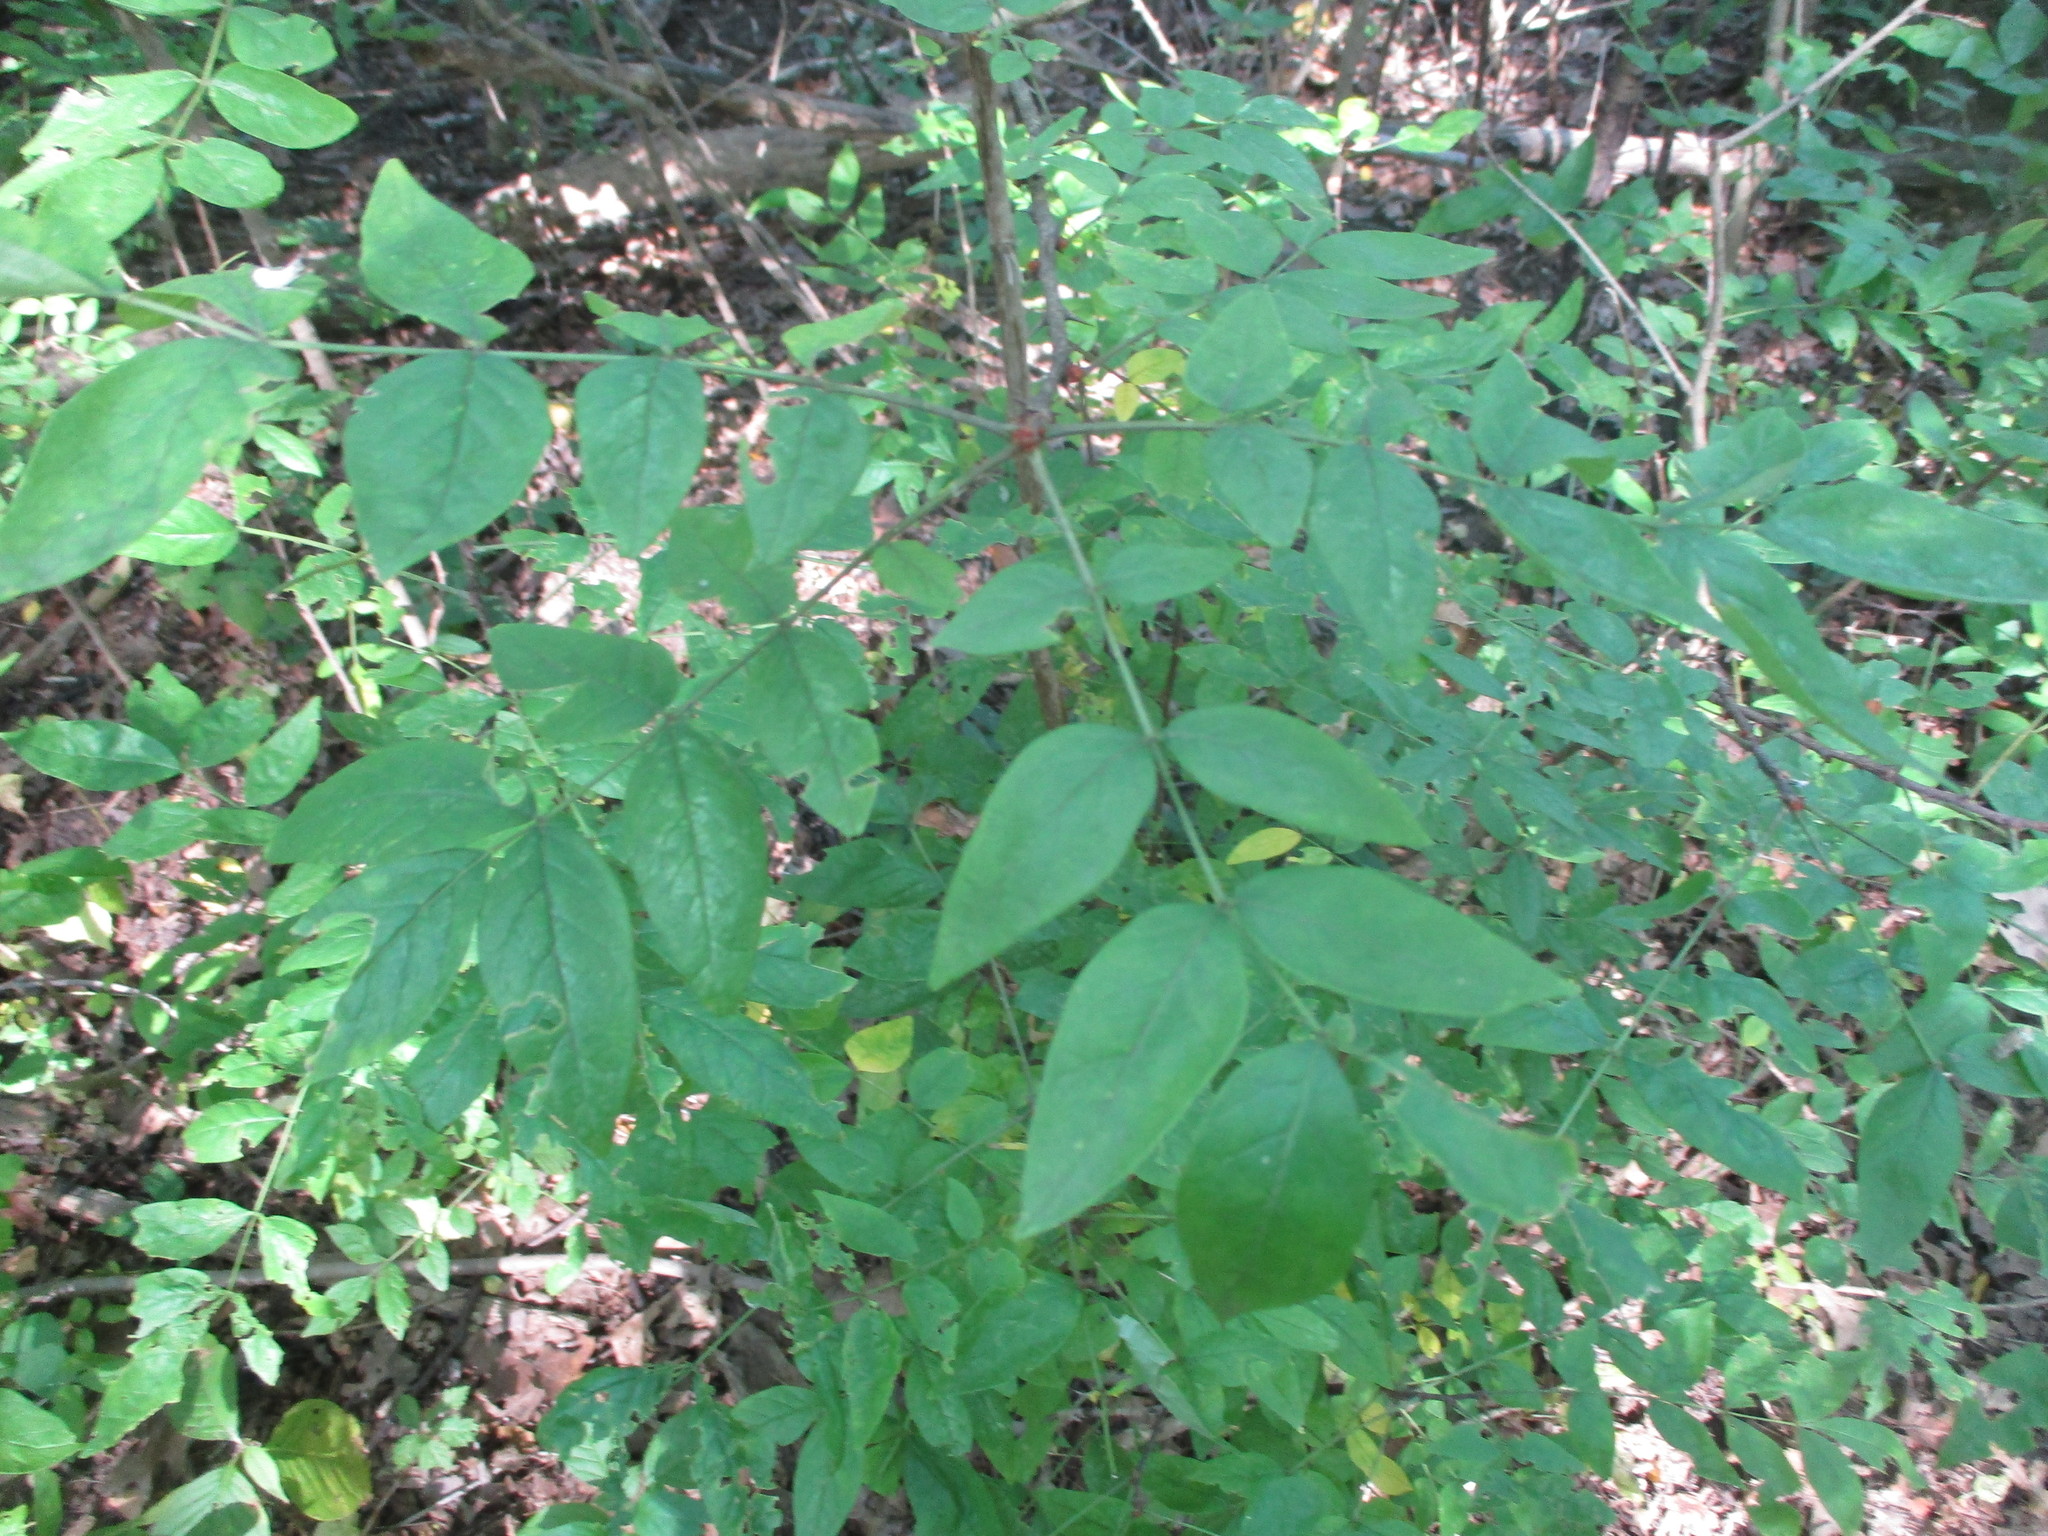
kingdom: Plantae
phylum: Tracheophyta
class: Magnoliopsida
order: Sapindales
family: Rutaceae
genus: Zanthoxylum
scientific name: Zanthoxylum americanum
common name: Northern prickly-ash
